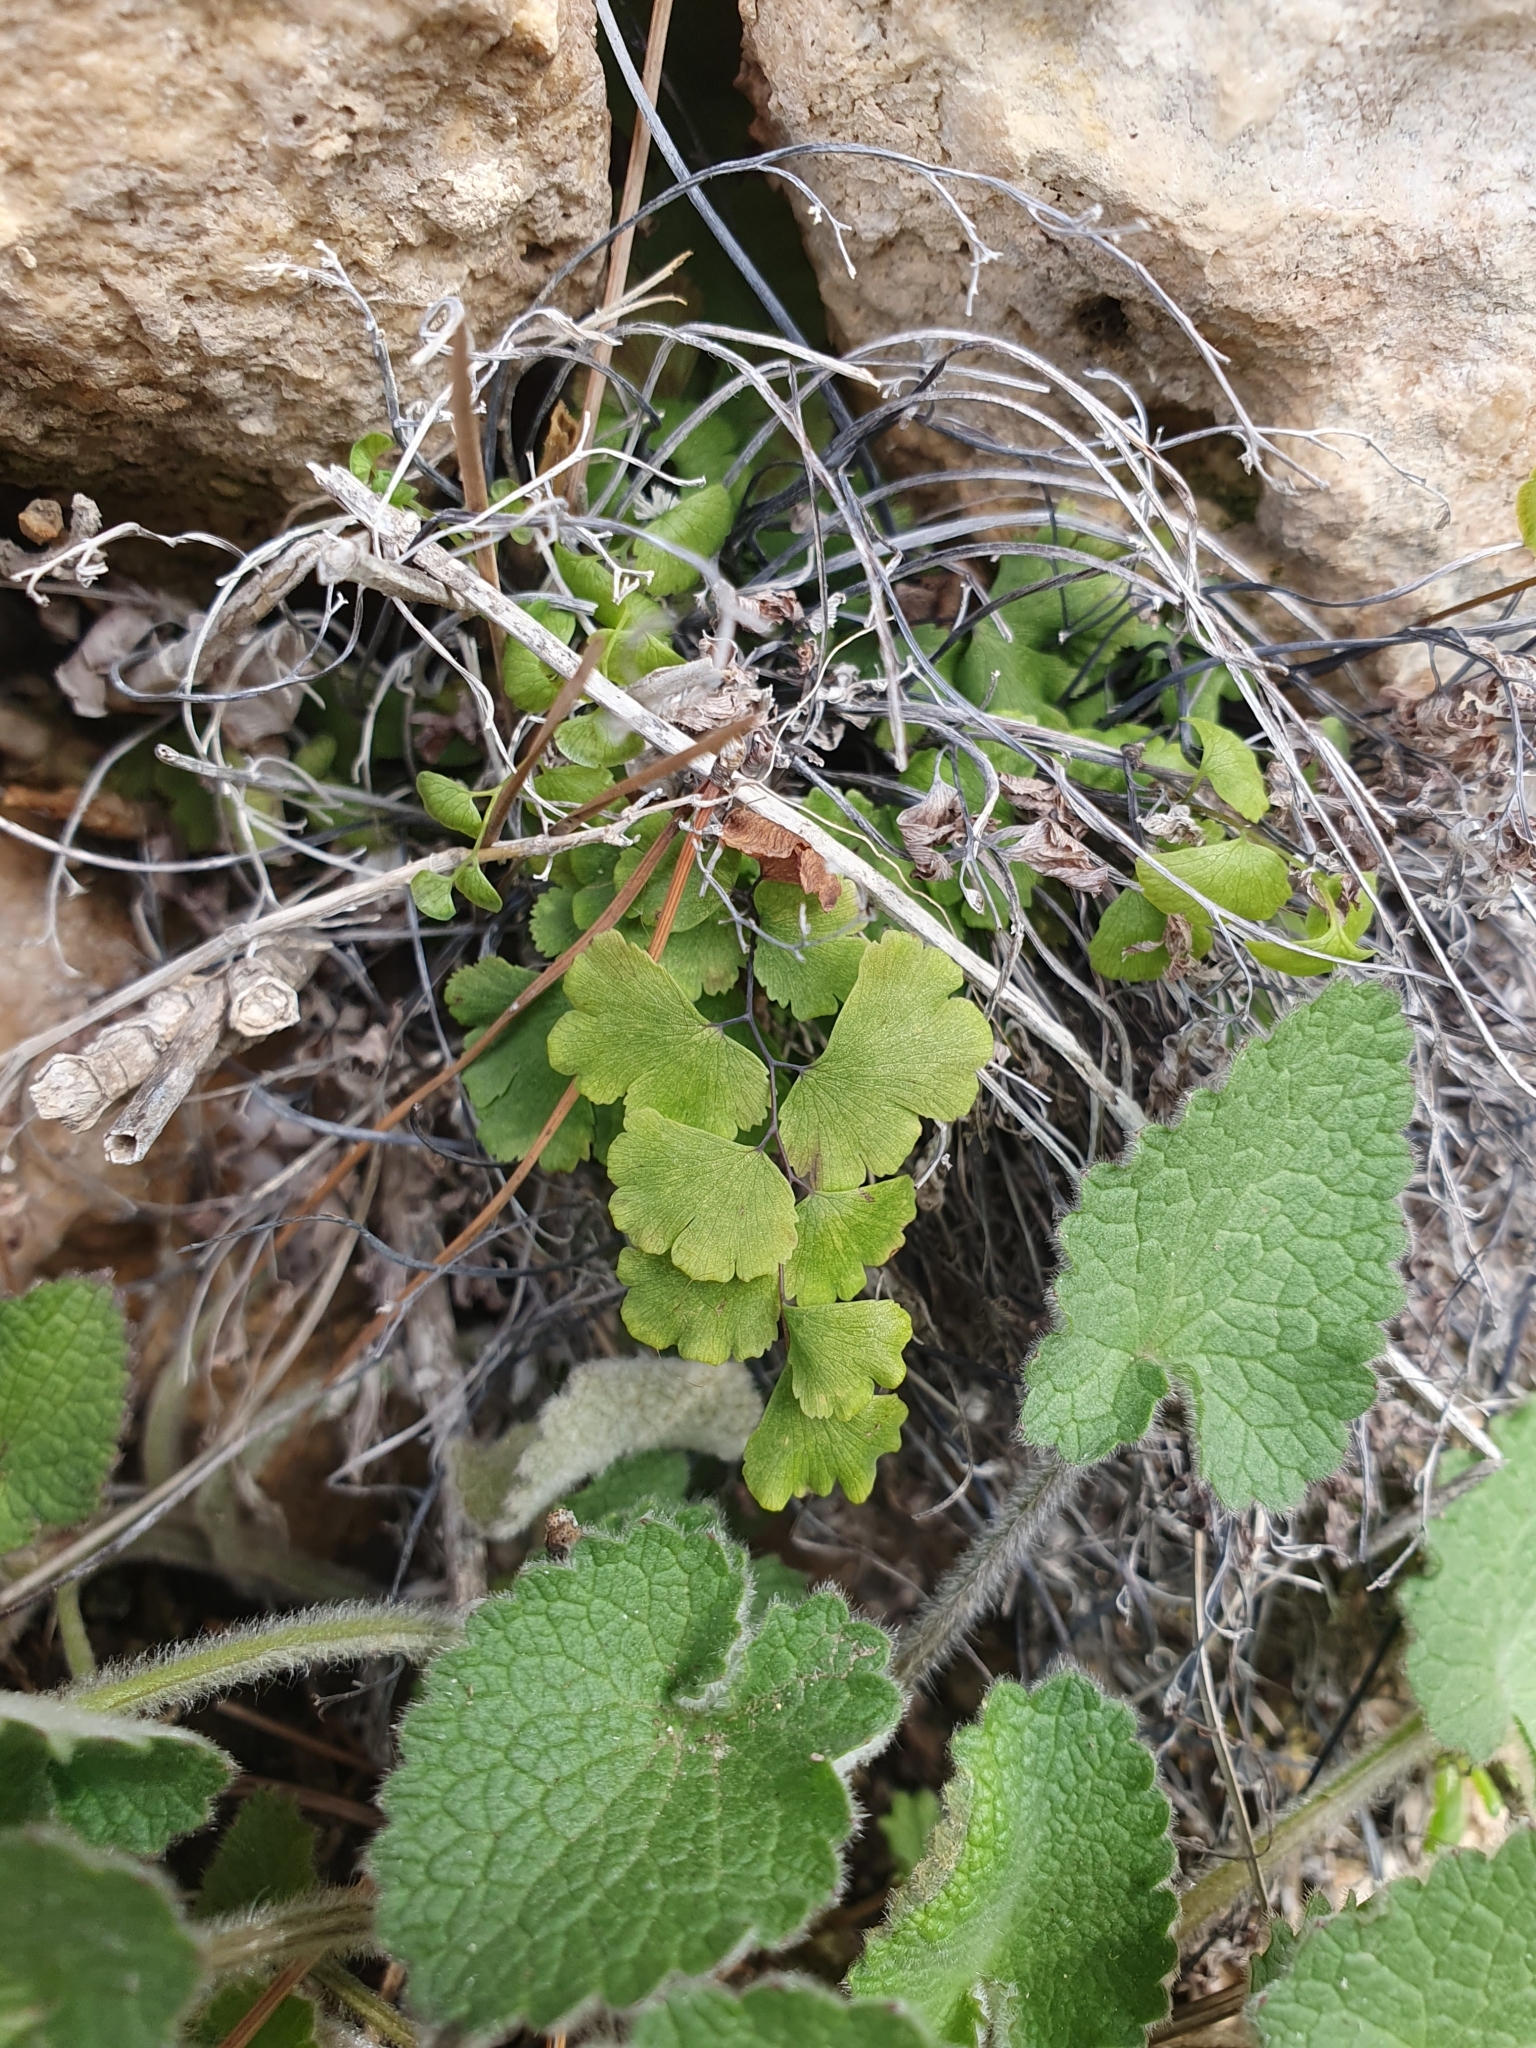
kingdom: Plantae
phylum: Tracheophyta
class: Polypodiopsida
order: Polypodiales
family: Pteridaceae
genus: Adiantum
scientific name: Adiantum capillus-veneris
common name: Maidenhair fern
